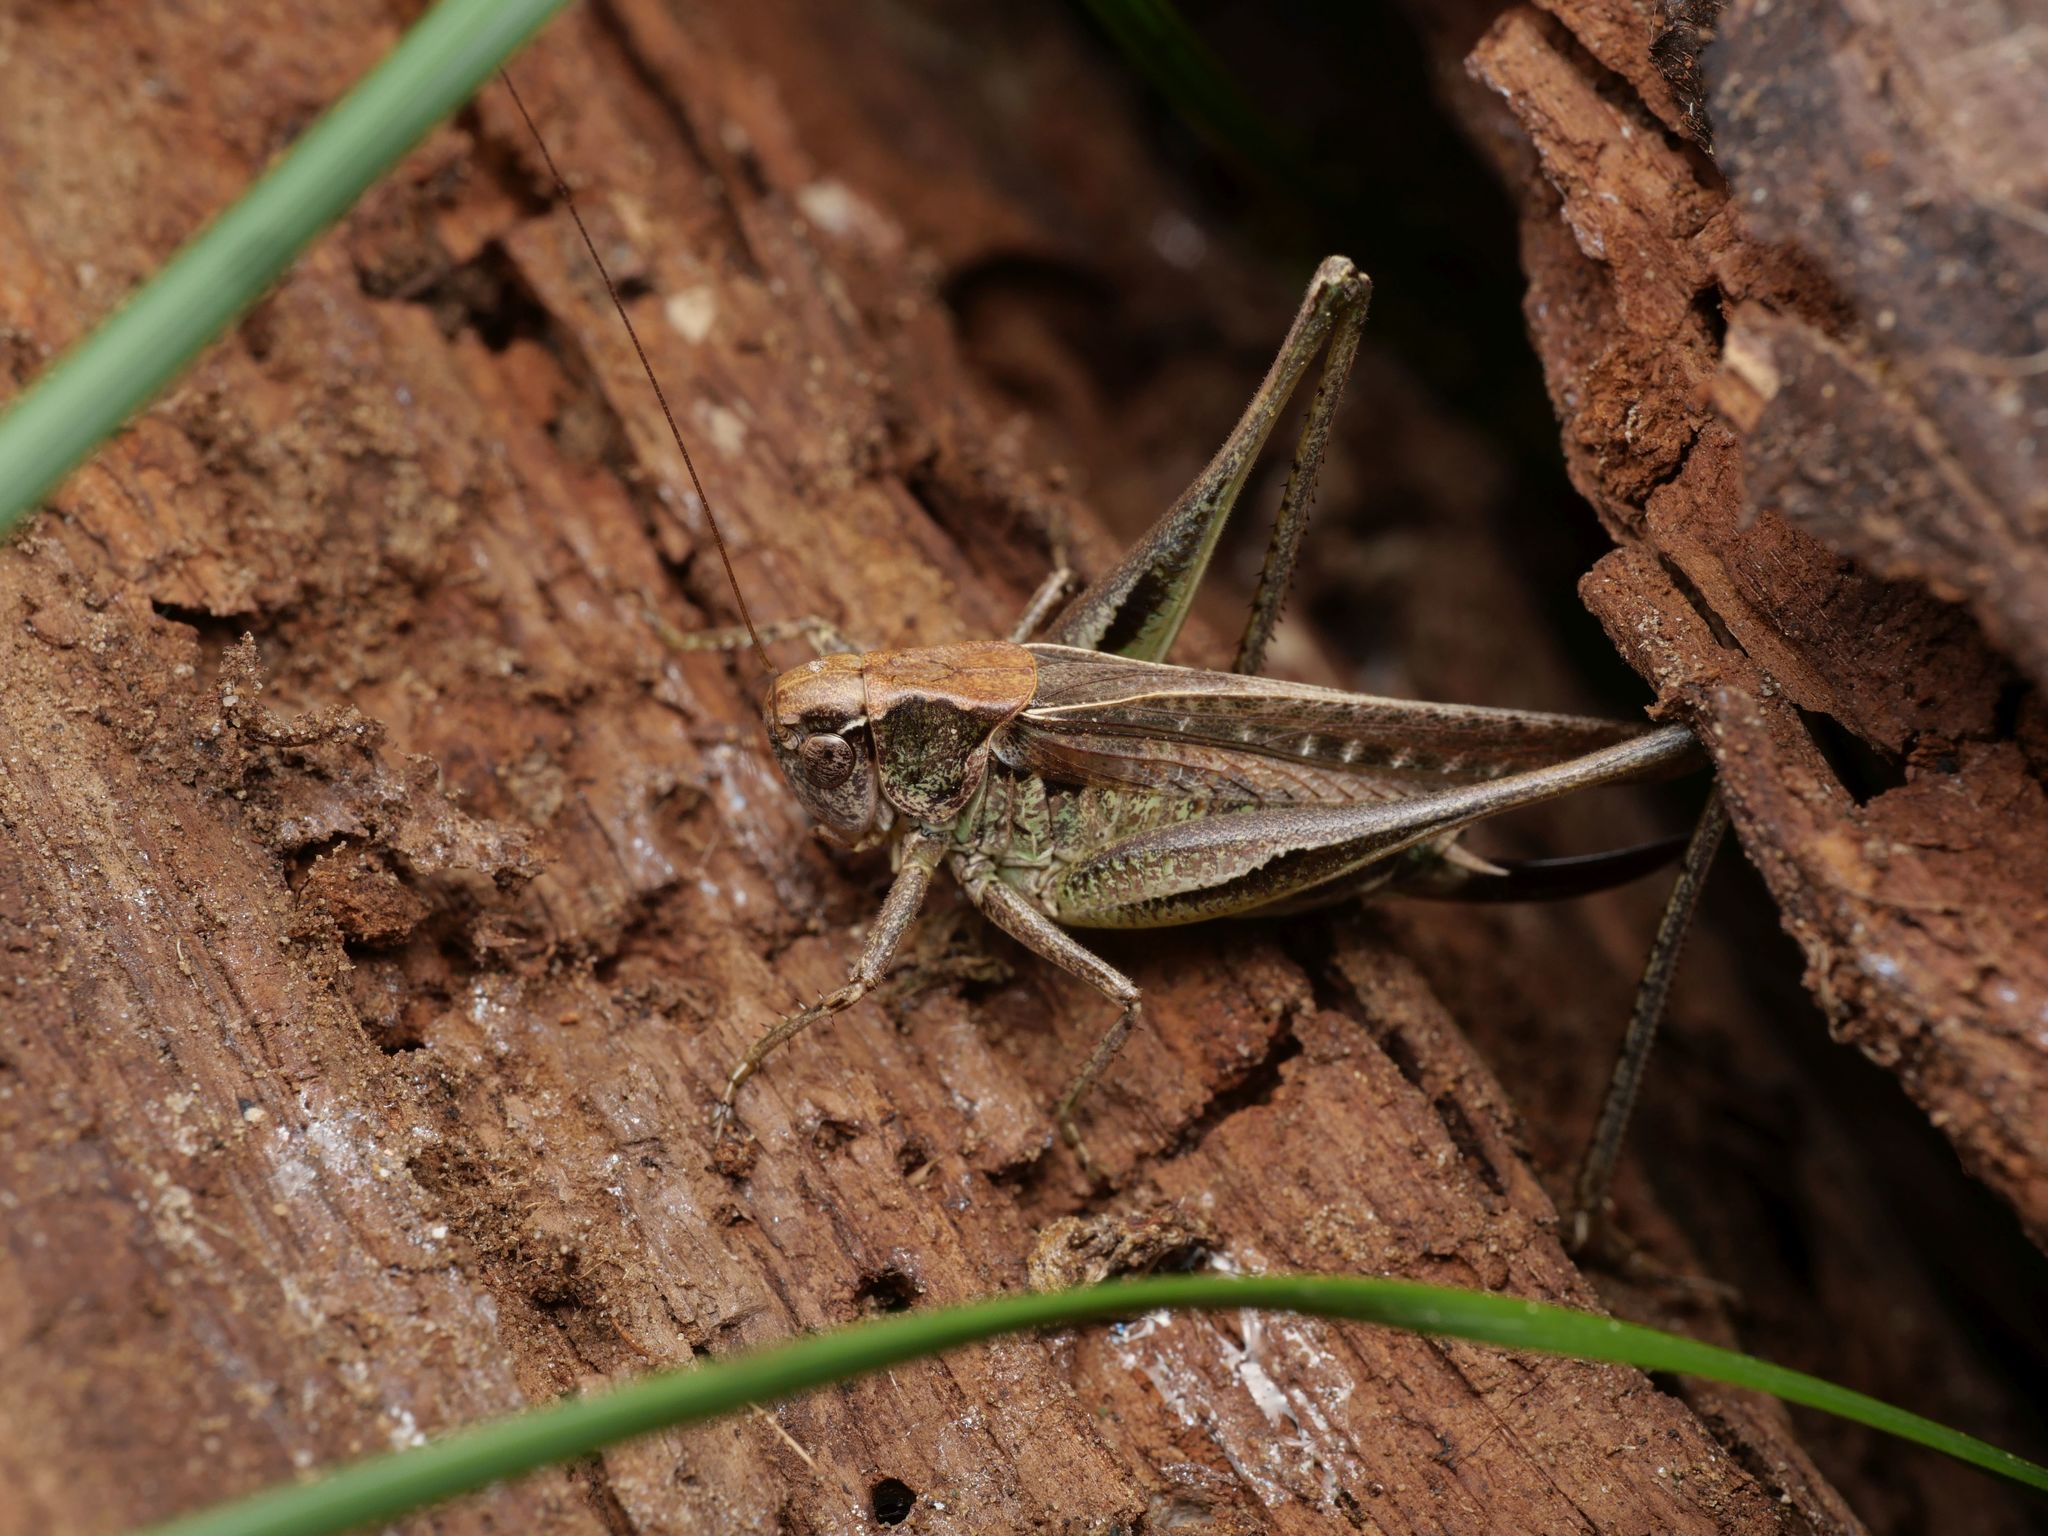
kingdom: Animalia
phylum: Arthropoda
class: Insecta
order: Orthoptera
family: Tettigoniidae
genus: Platycleis
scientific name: Platycleis albopunctata
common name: Grey bush-cricket
